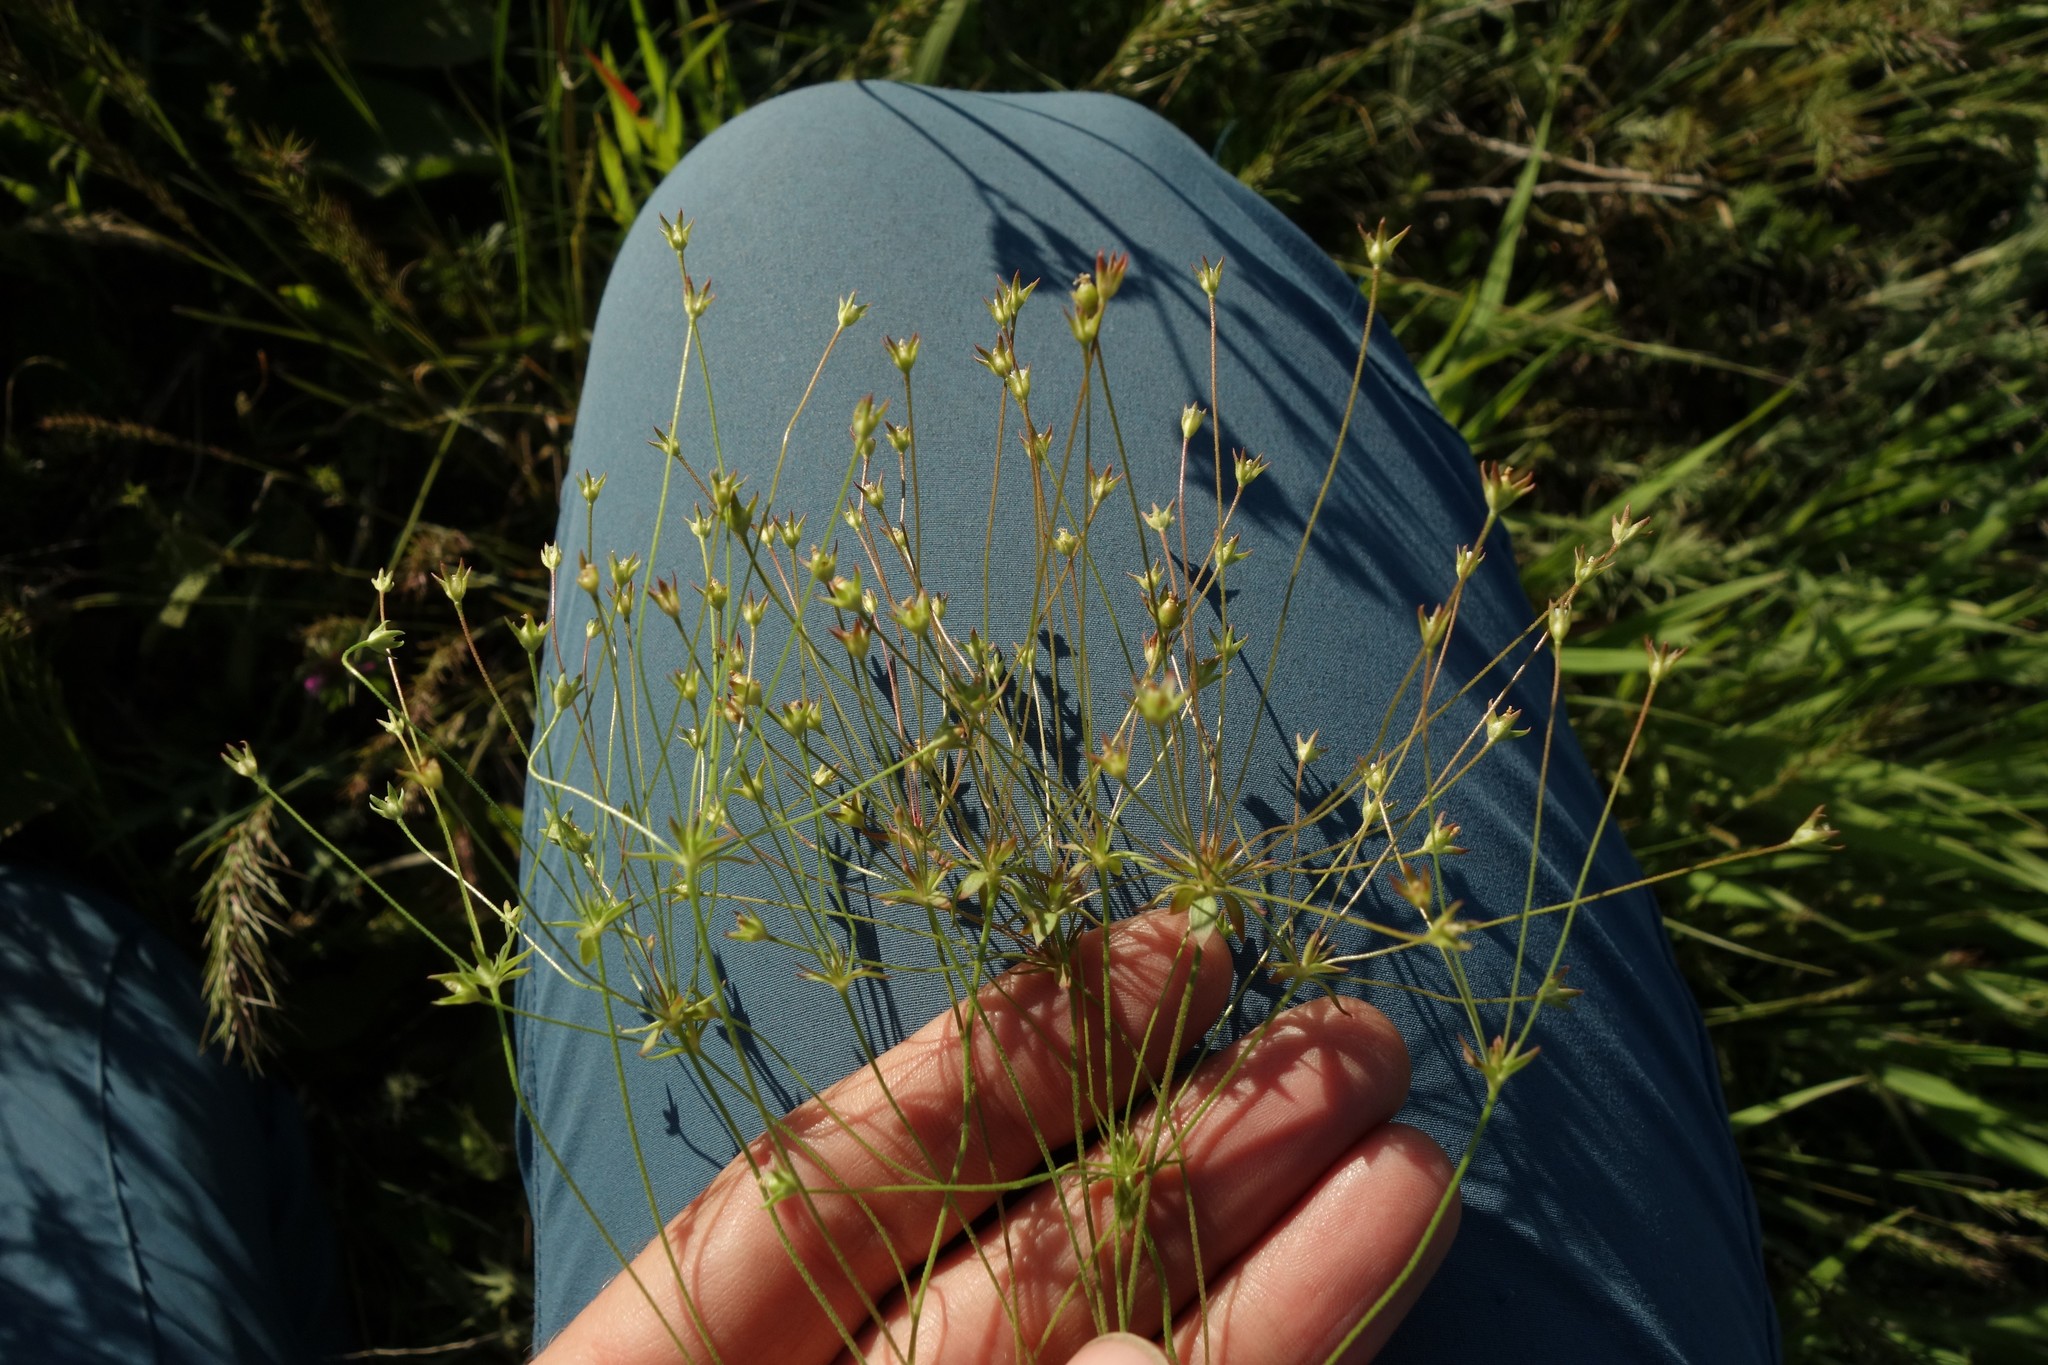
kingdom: Plantae
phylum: Tracheophyta
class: Magnoliopsida
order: Ericales
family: Primulaceae
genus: Androsace
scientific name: Androsace elongata
